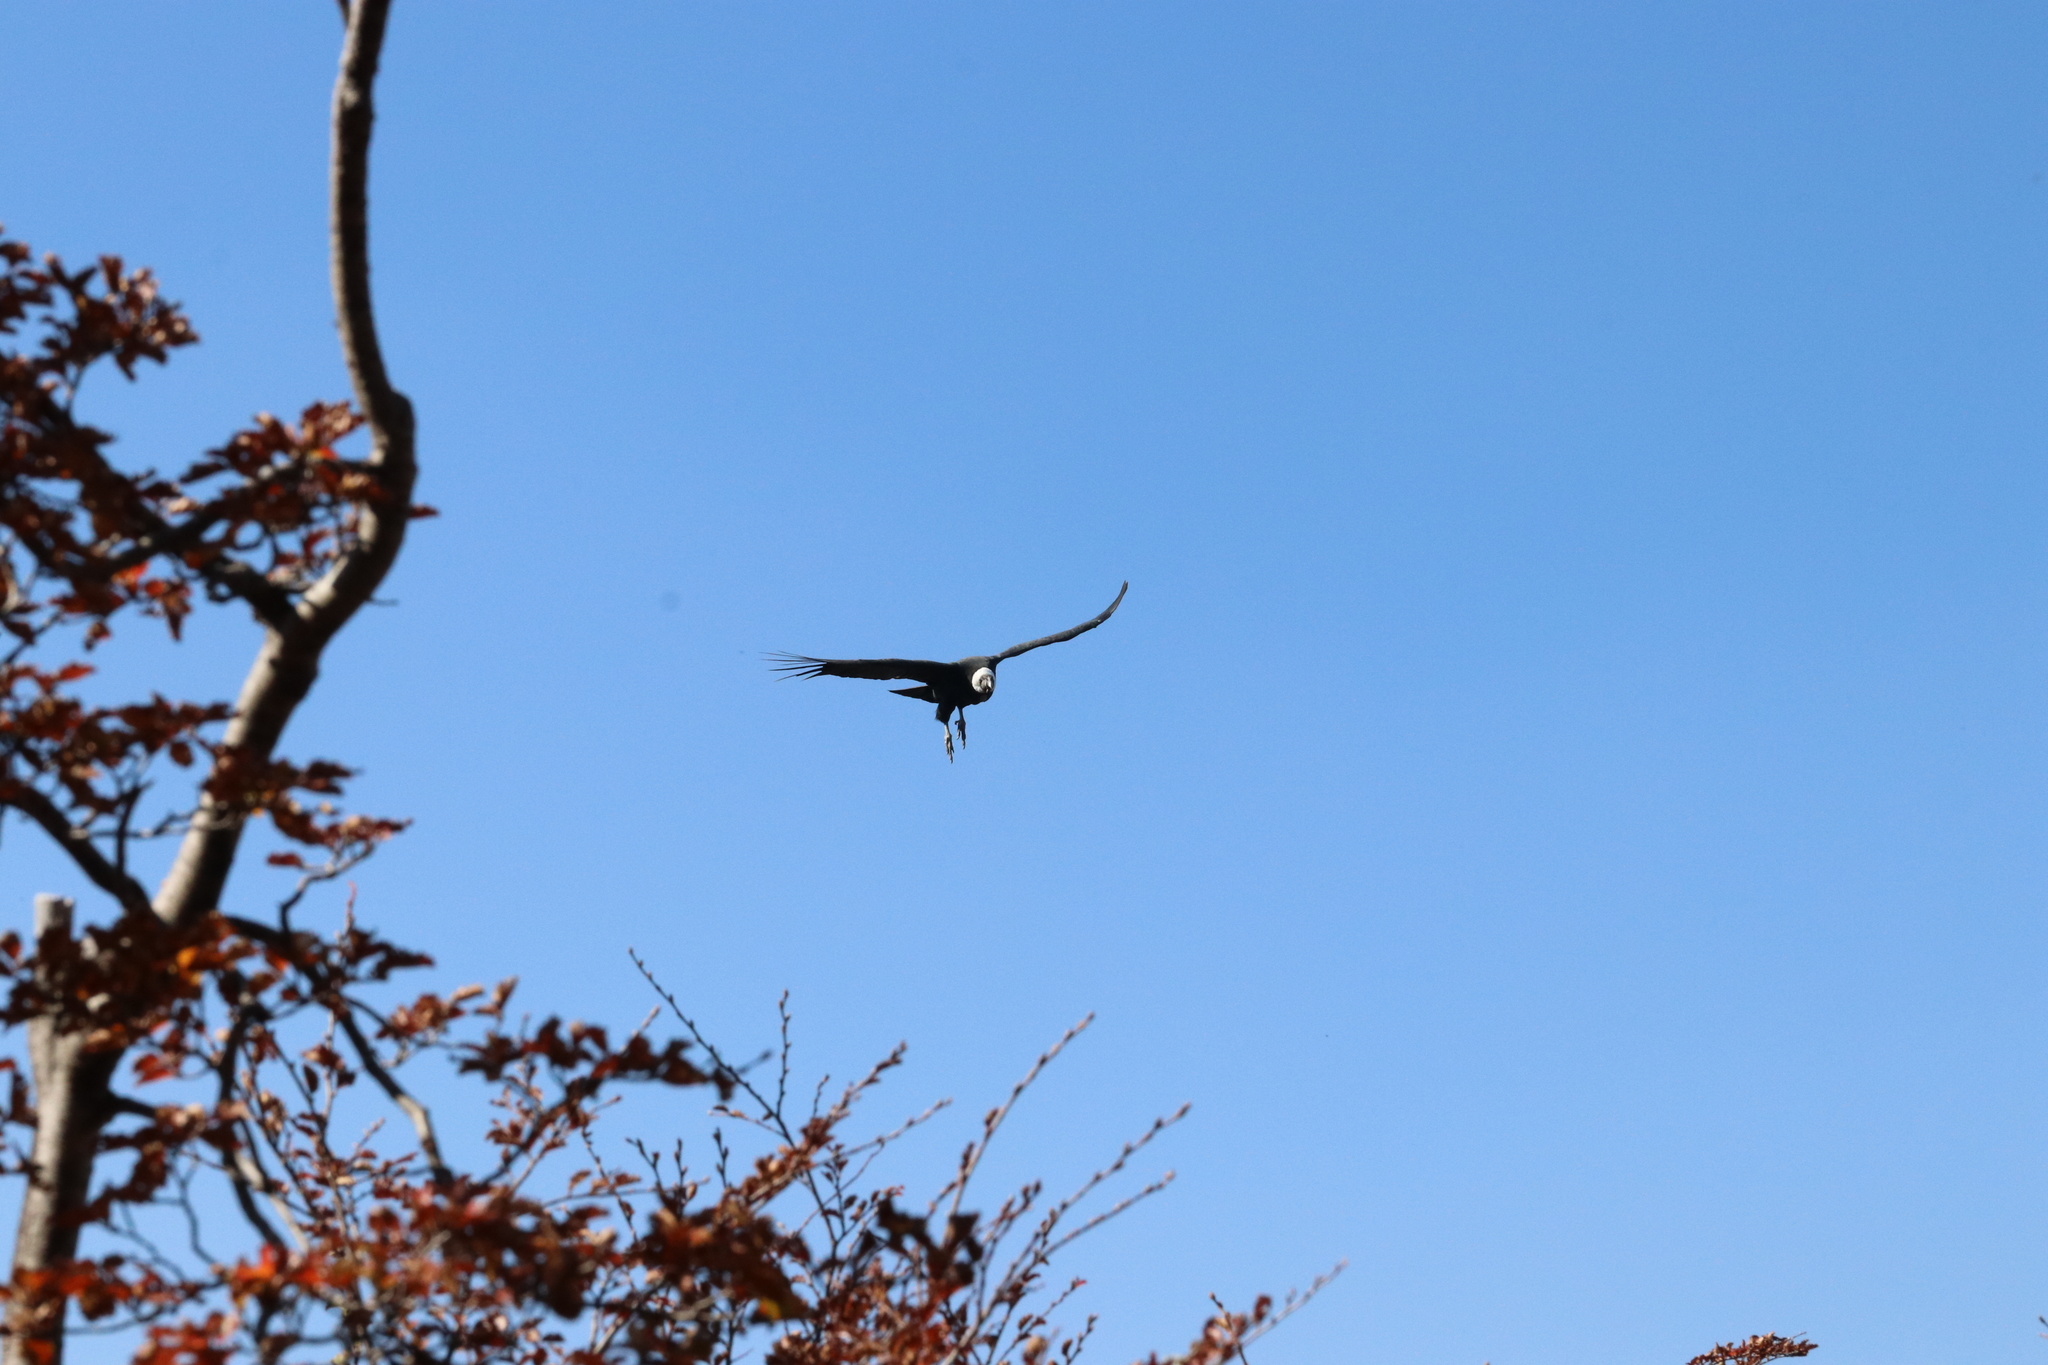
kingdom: Animalia
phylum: Chordata
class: Aves
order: Accipitriformes
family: Cathartidae
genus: Vultur
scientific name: Vultur gryphus
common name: Andean condor
